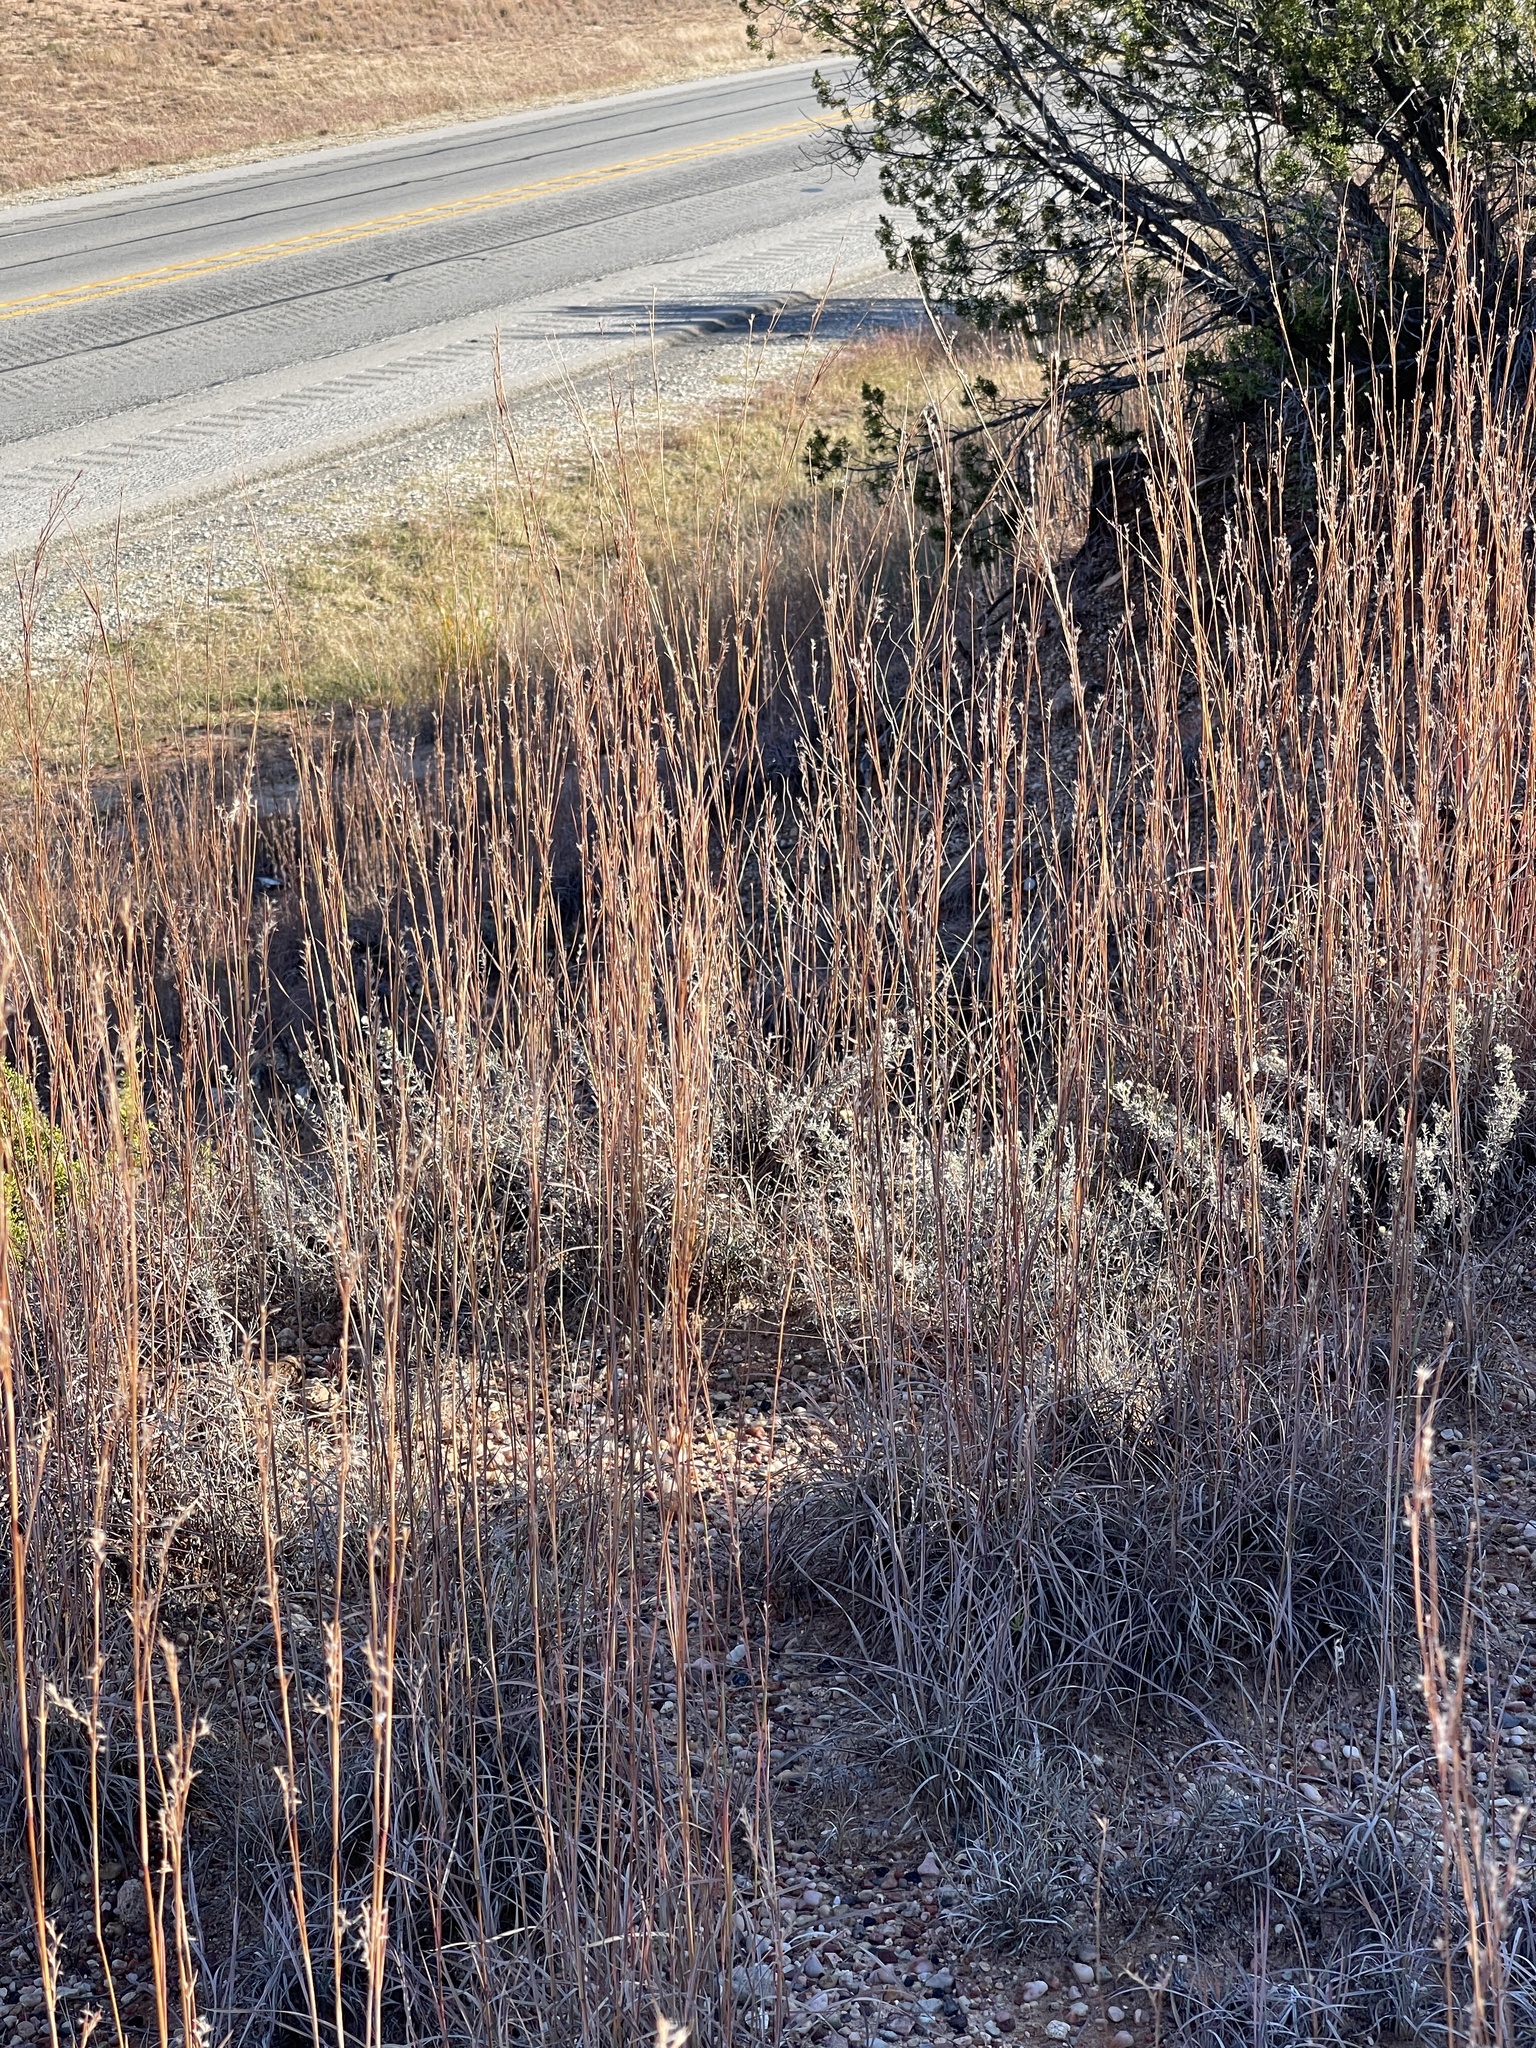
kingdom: Plantae
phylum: Tracheophyta
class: Liliopsida
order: Poales
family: Poaceae
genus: Schizachyrium
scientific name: Schizachyrium scoparium
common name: Little bluestem
